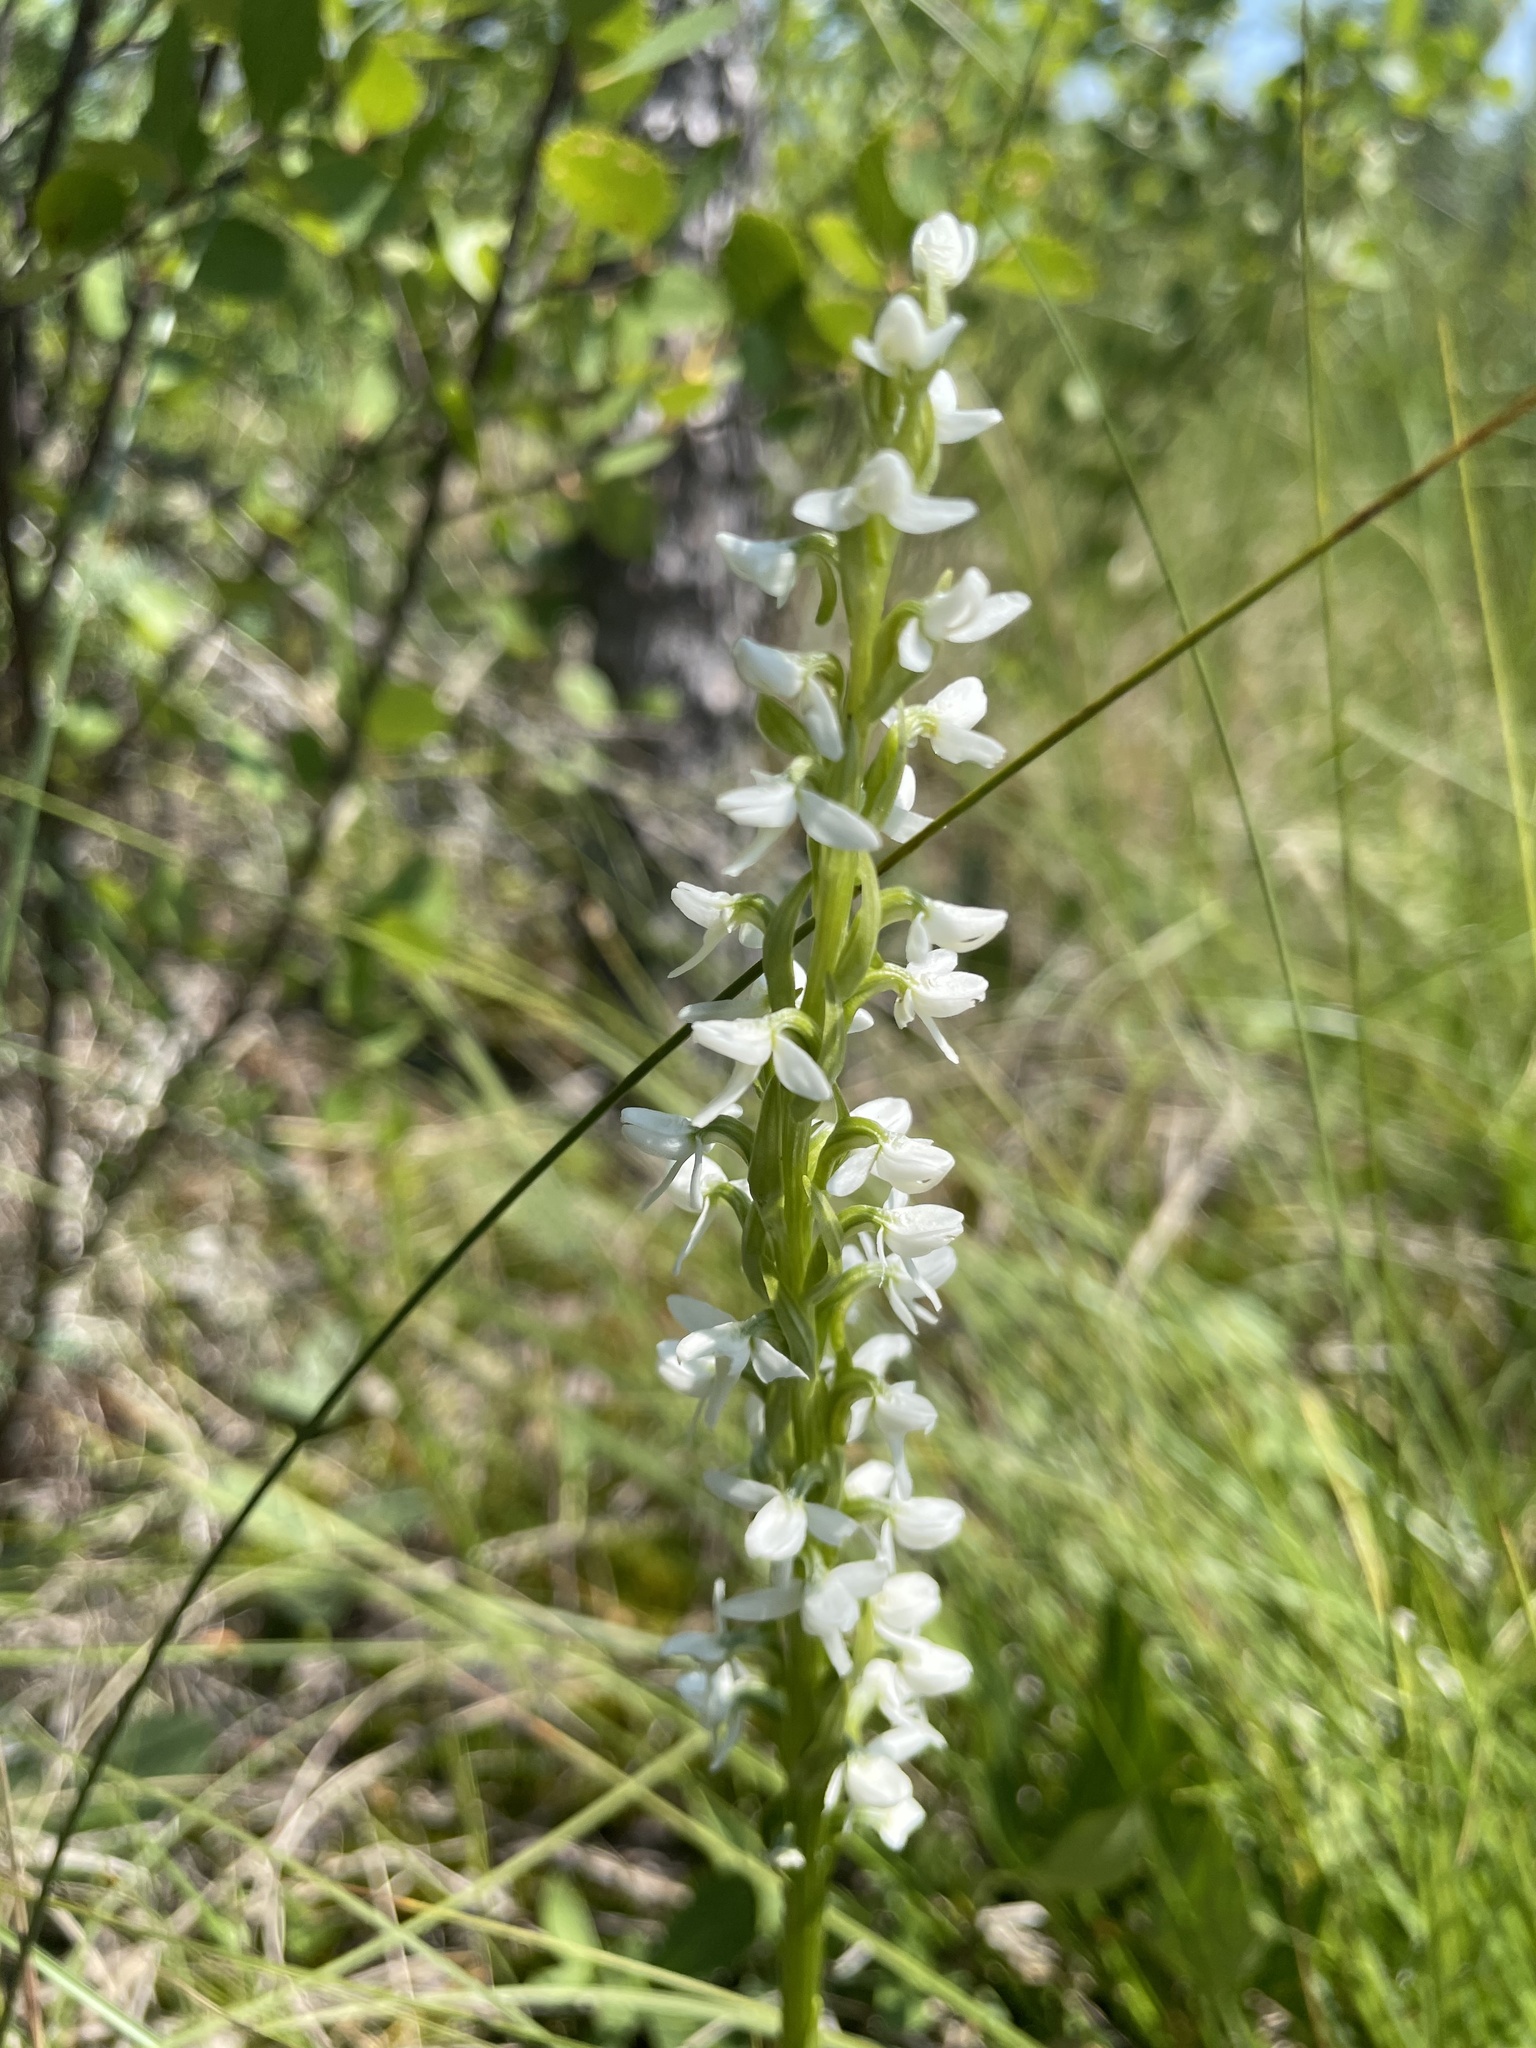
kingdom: Plantae
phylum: Tracheophyta
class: Liliopsida
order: Asparagales
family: Orchidaceae
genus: Platanthera
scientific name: Platanthera dilatata
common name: Bog candles
